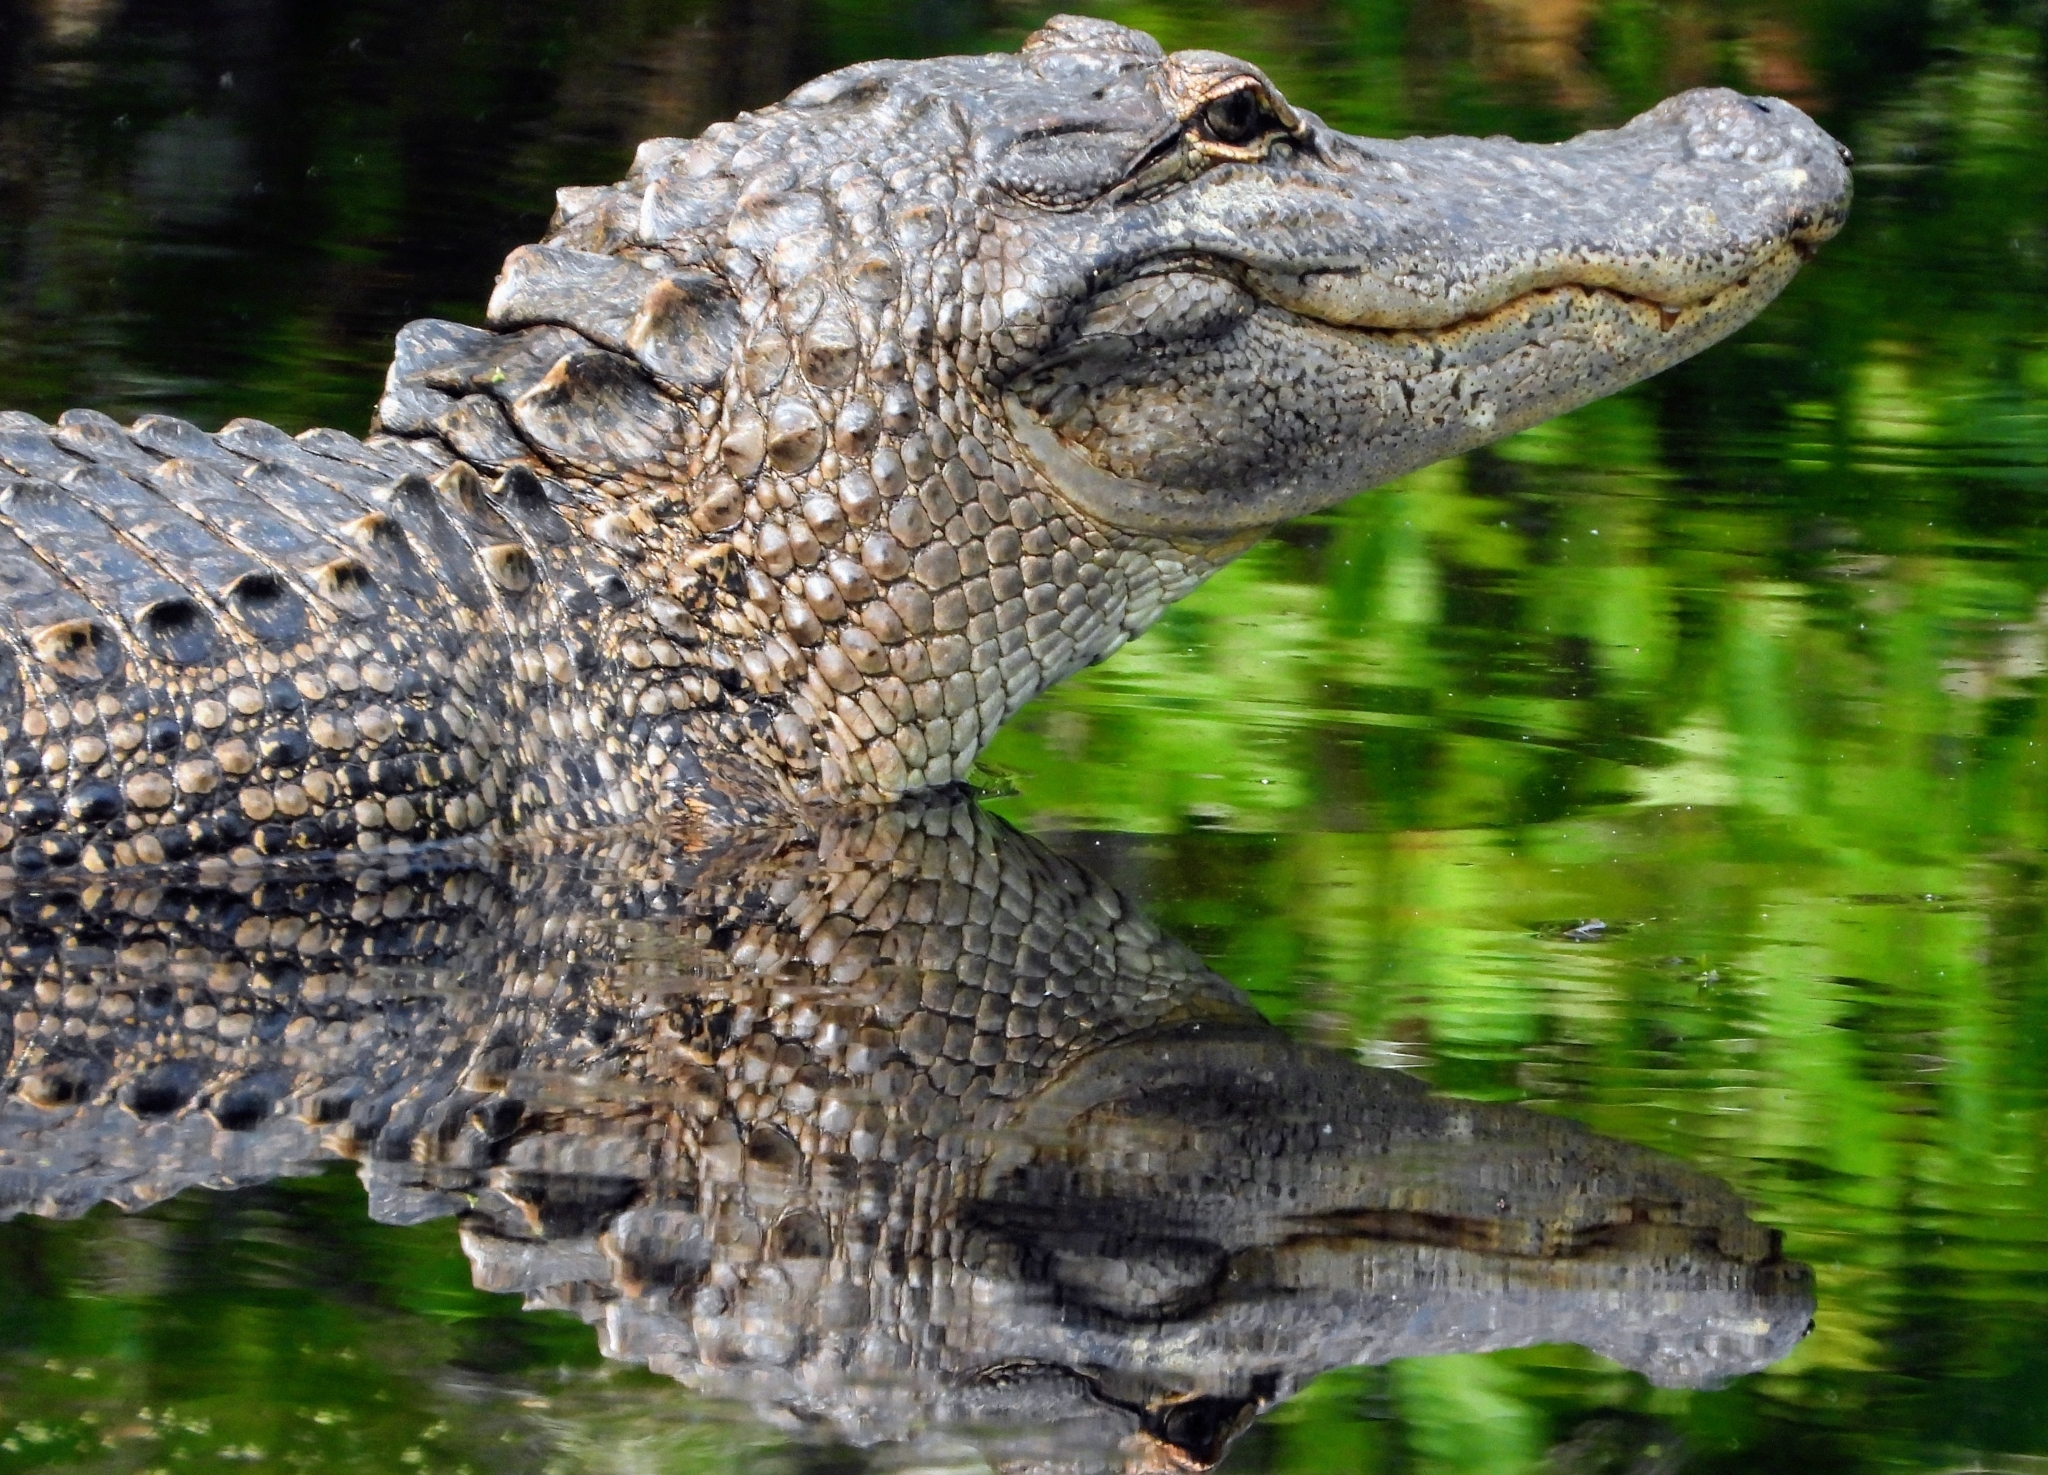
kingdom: Animalia
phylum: Chordata
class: Crocodylia
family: Alligatoridae
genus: Alligator
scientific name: Alligator mississippiensis
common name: American alligator
